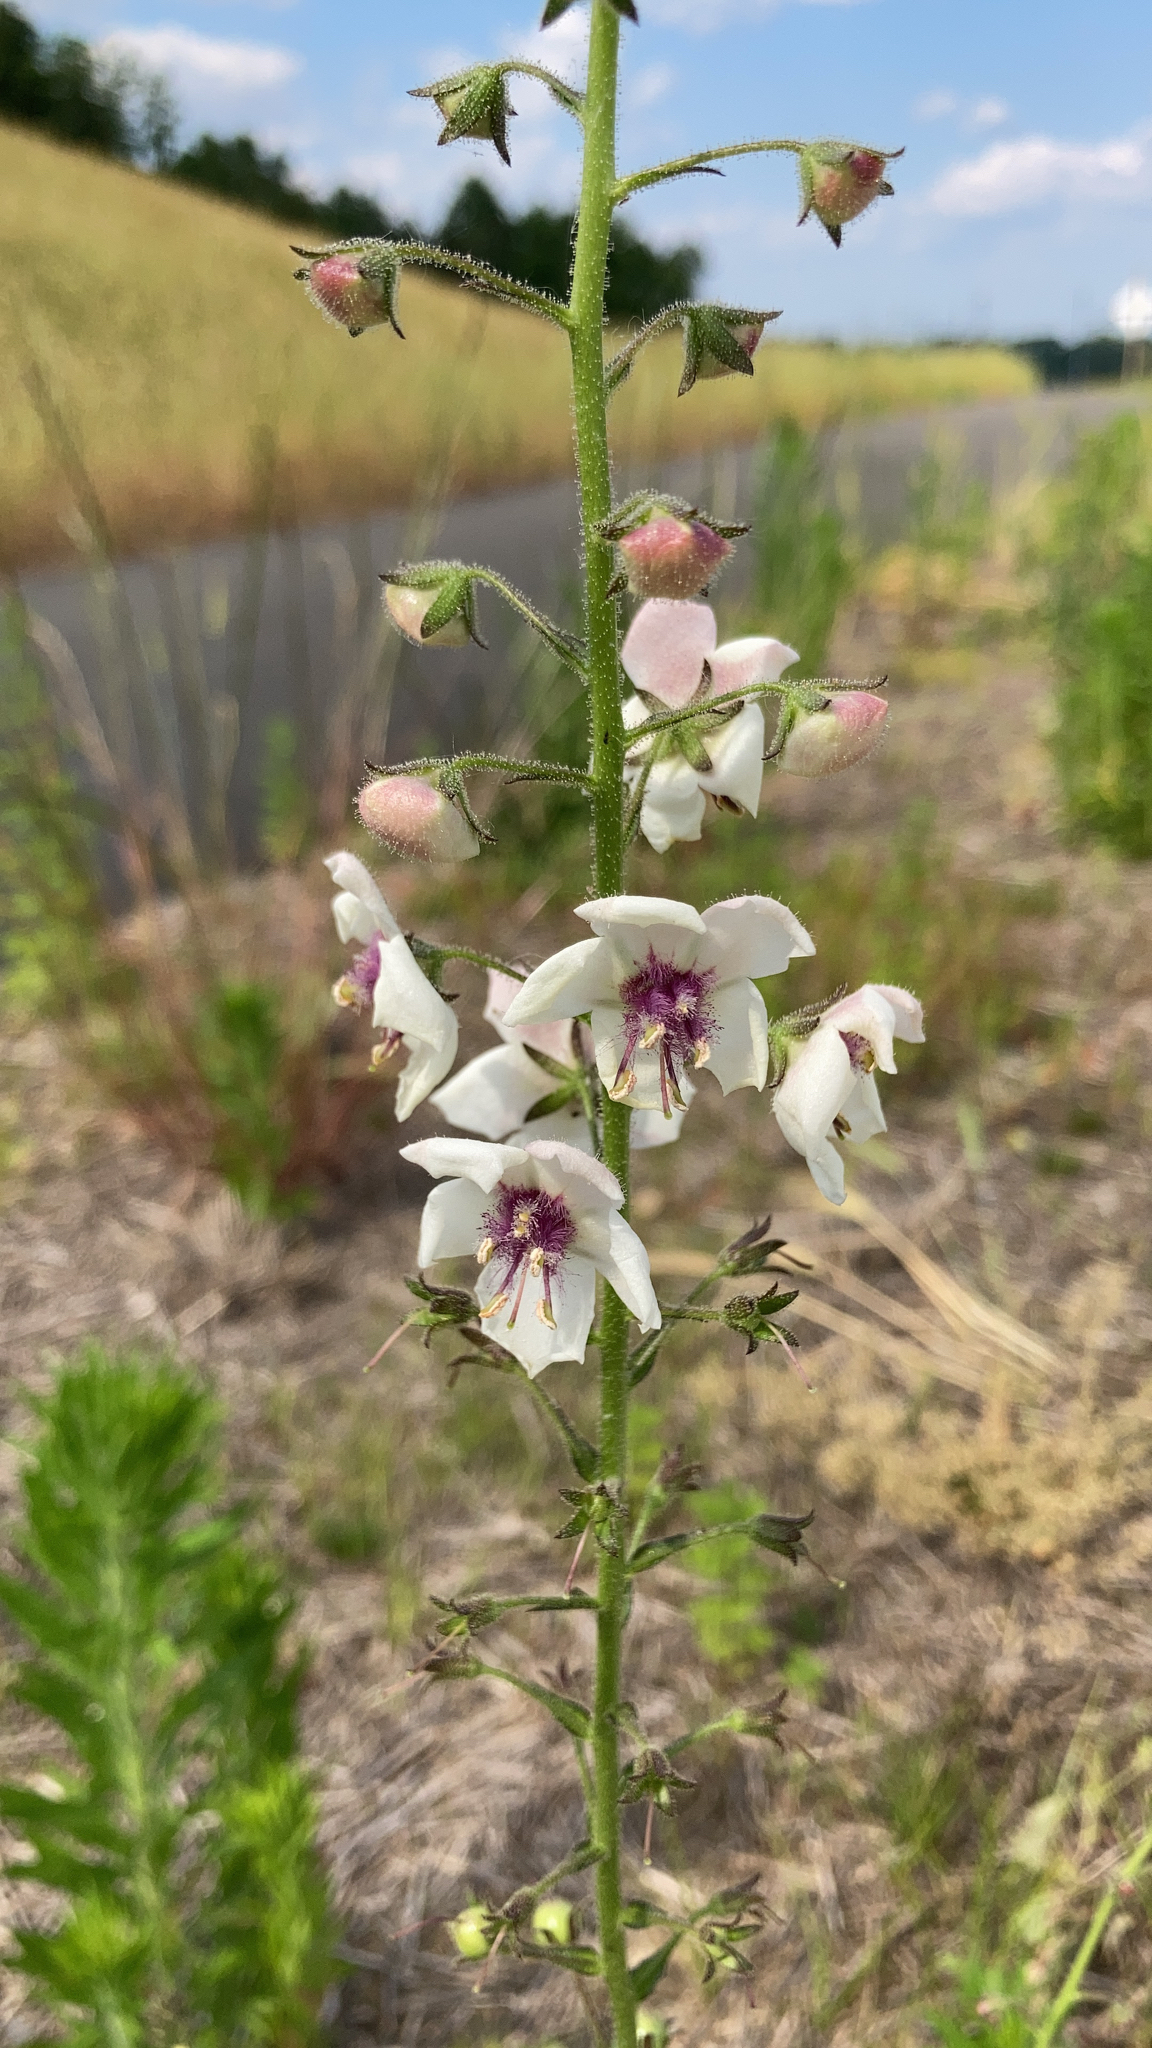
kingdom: Plantae
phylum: Tracheophyta
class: Magnoliopsida
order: Lamiales
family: Scrophulariaceae
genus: Verbascum
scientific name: Verbascum blattaria
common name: Moth mullein
